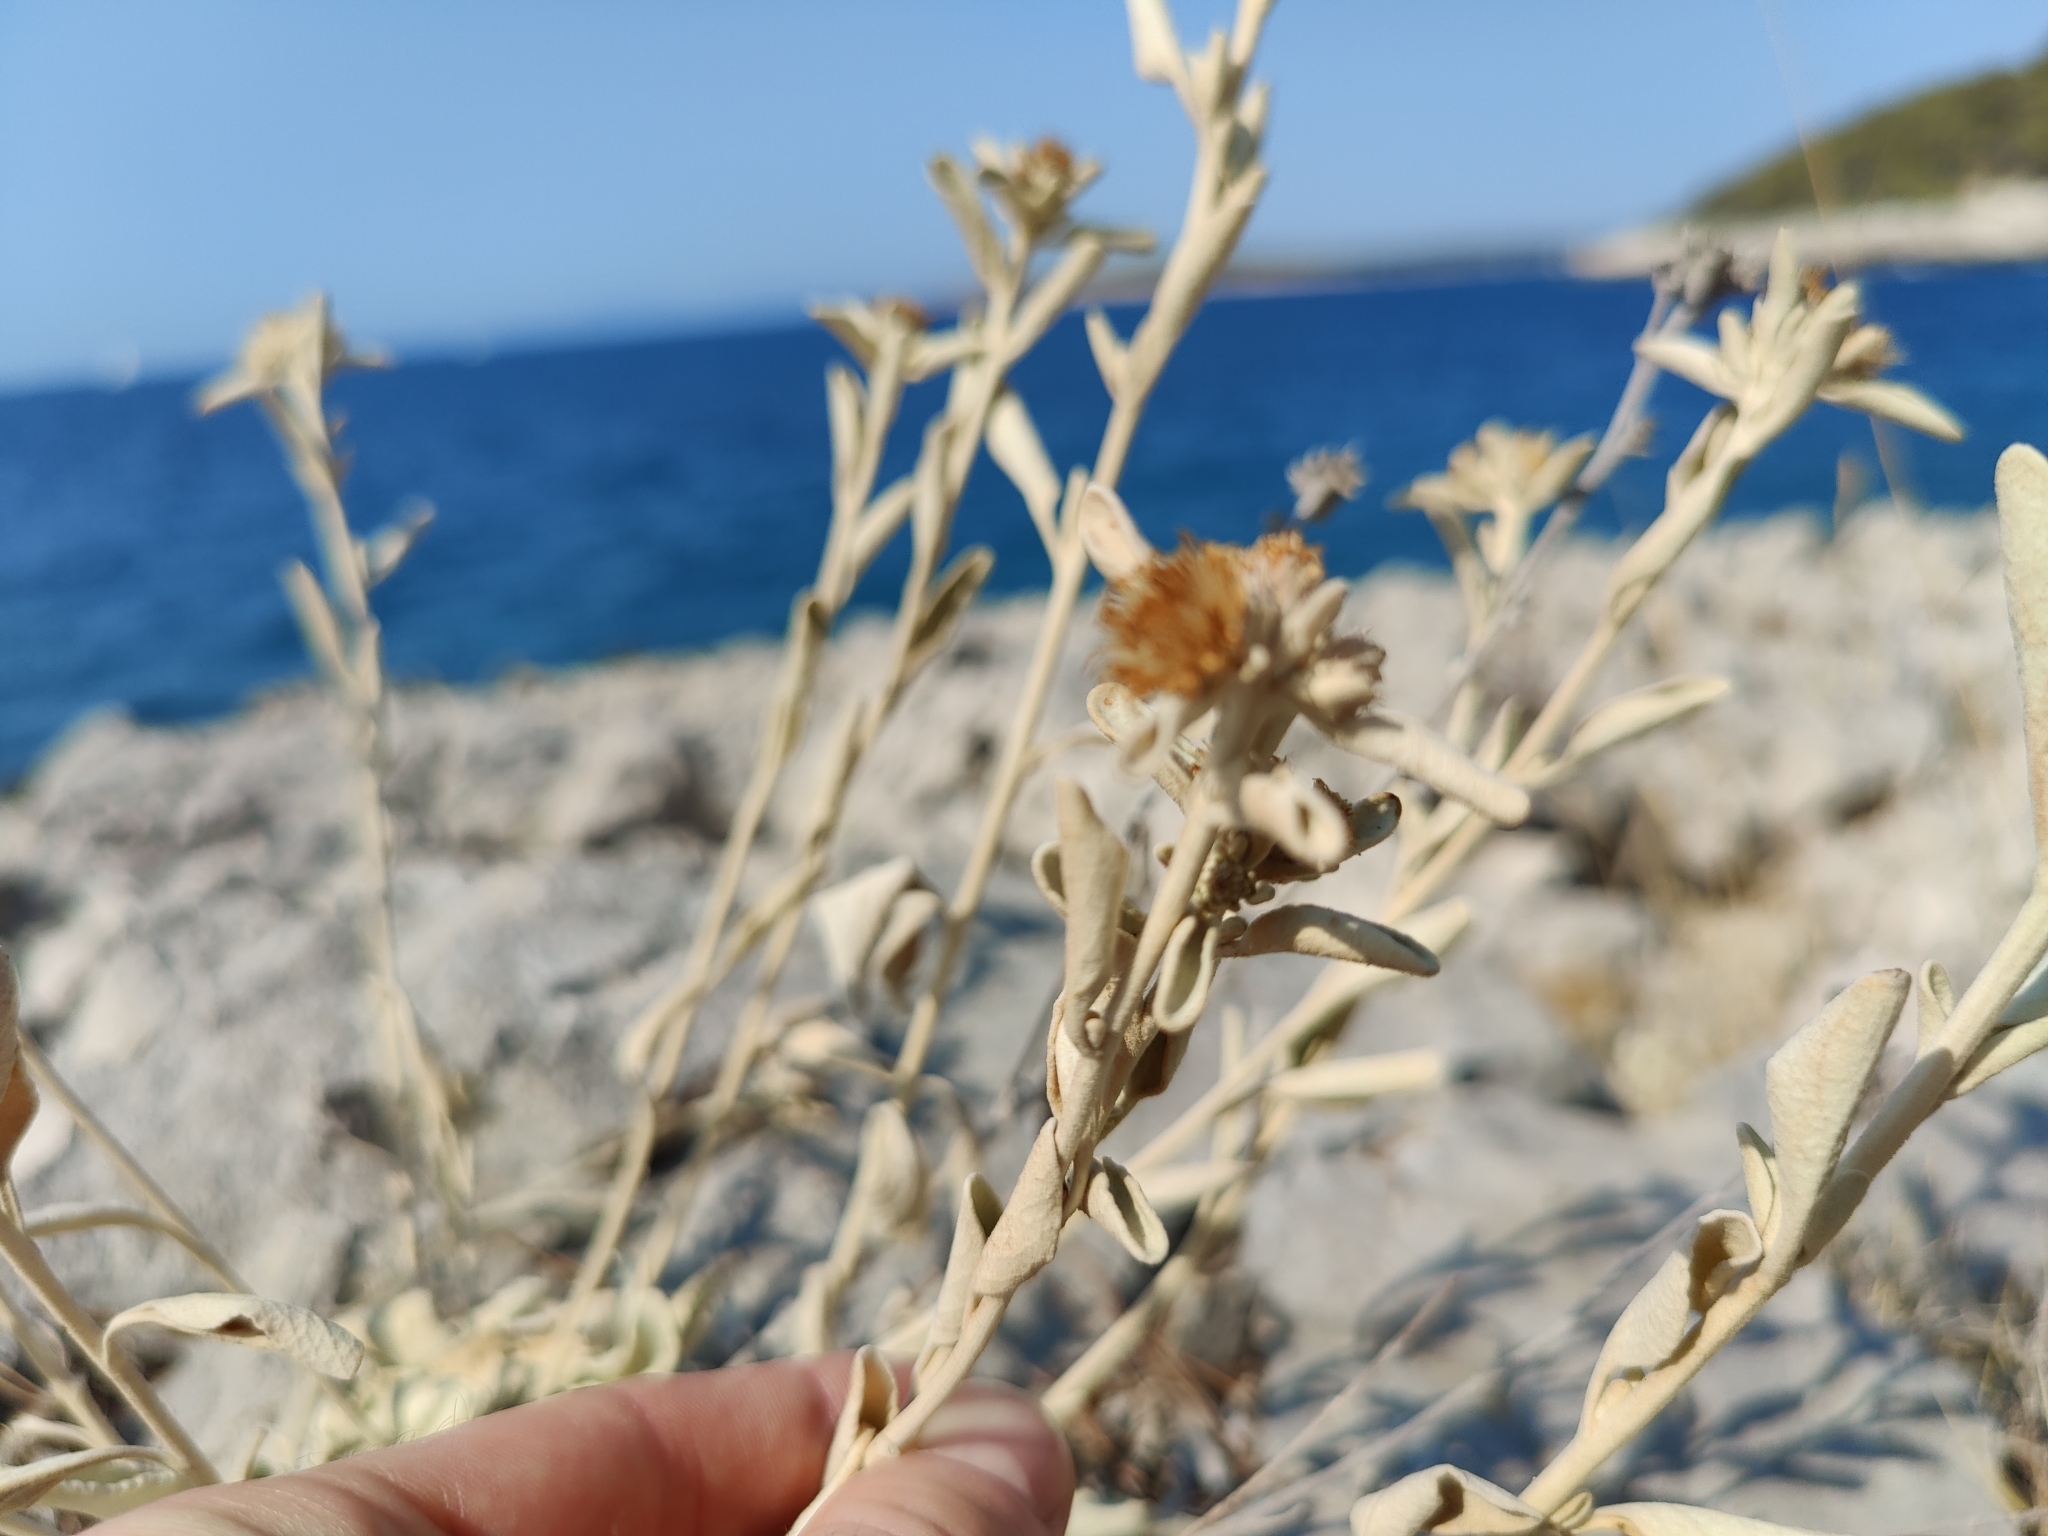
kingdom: Plantae
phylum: Tracheophyta
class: Magnoliopsida
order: Asterales
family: Asteraceae
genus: Pentanema
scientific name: Pentanema verbascifolium
